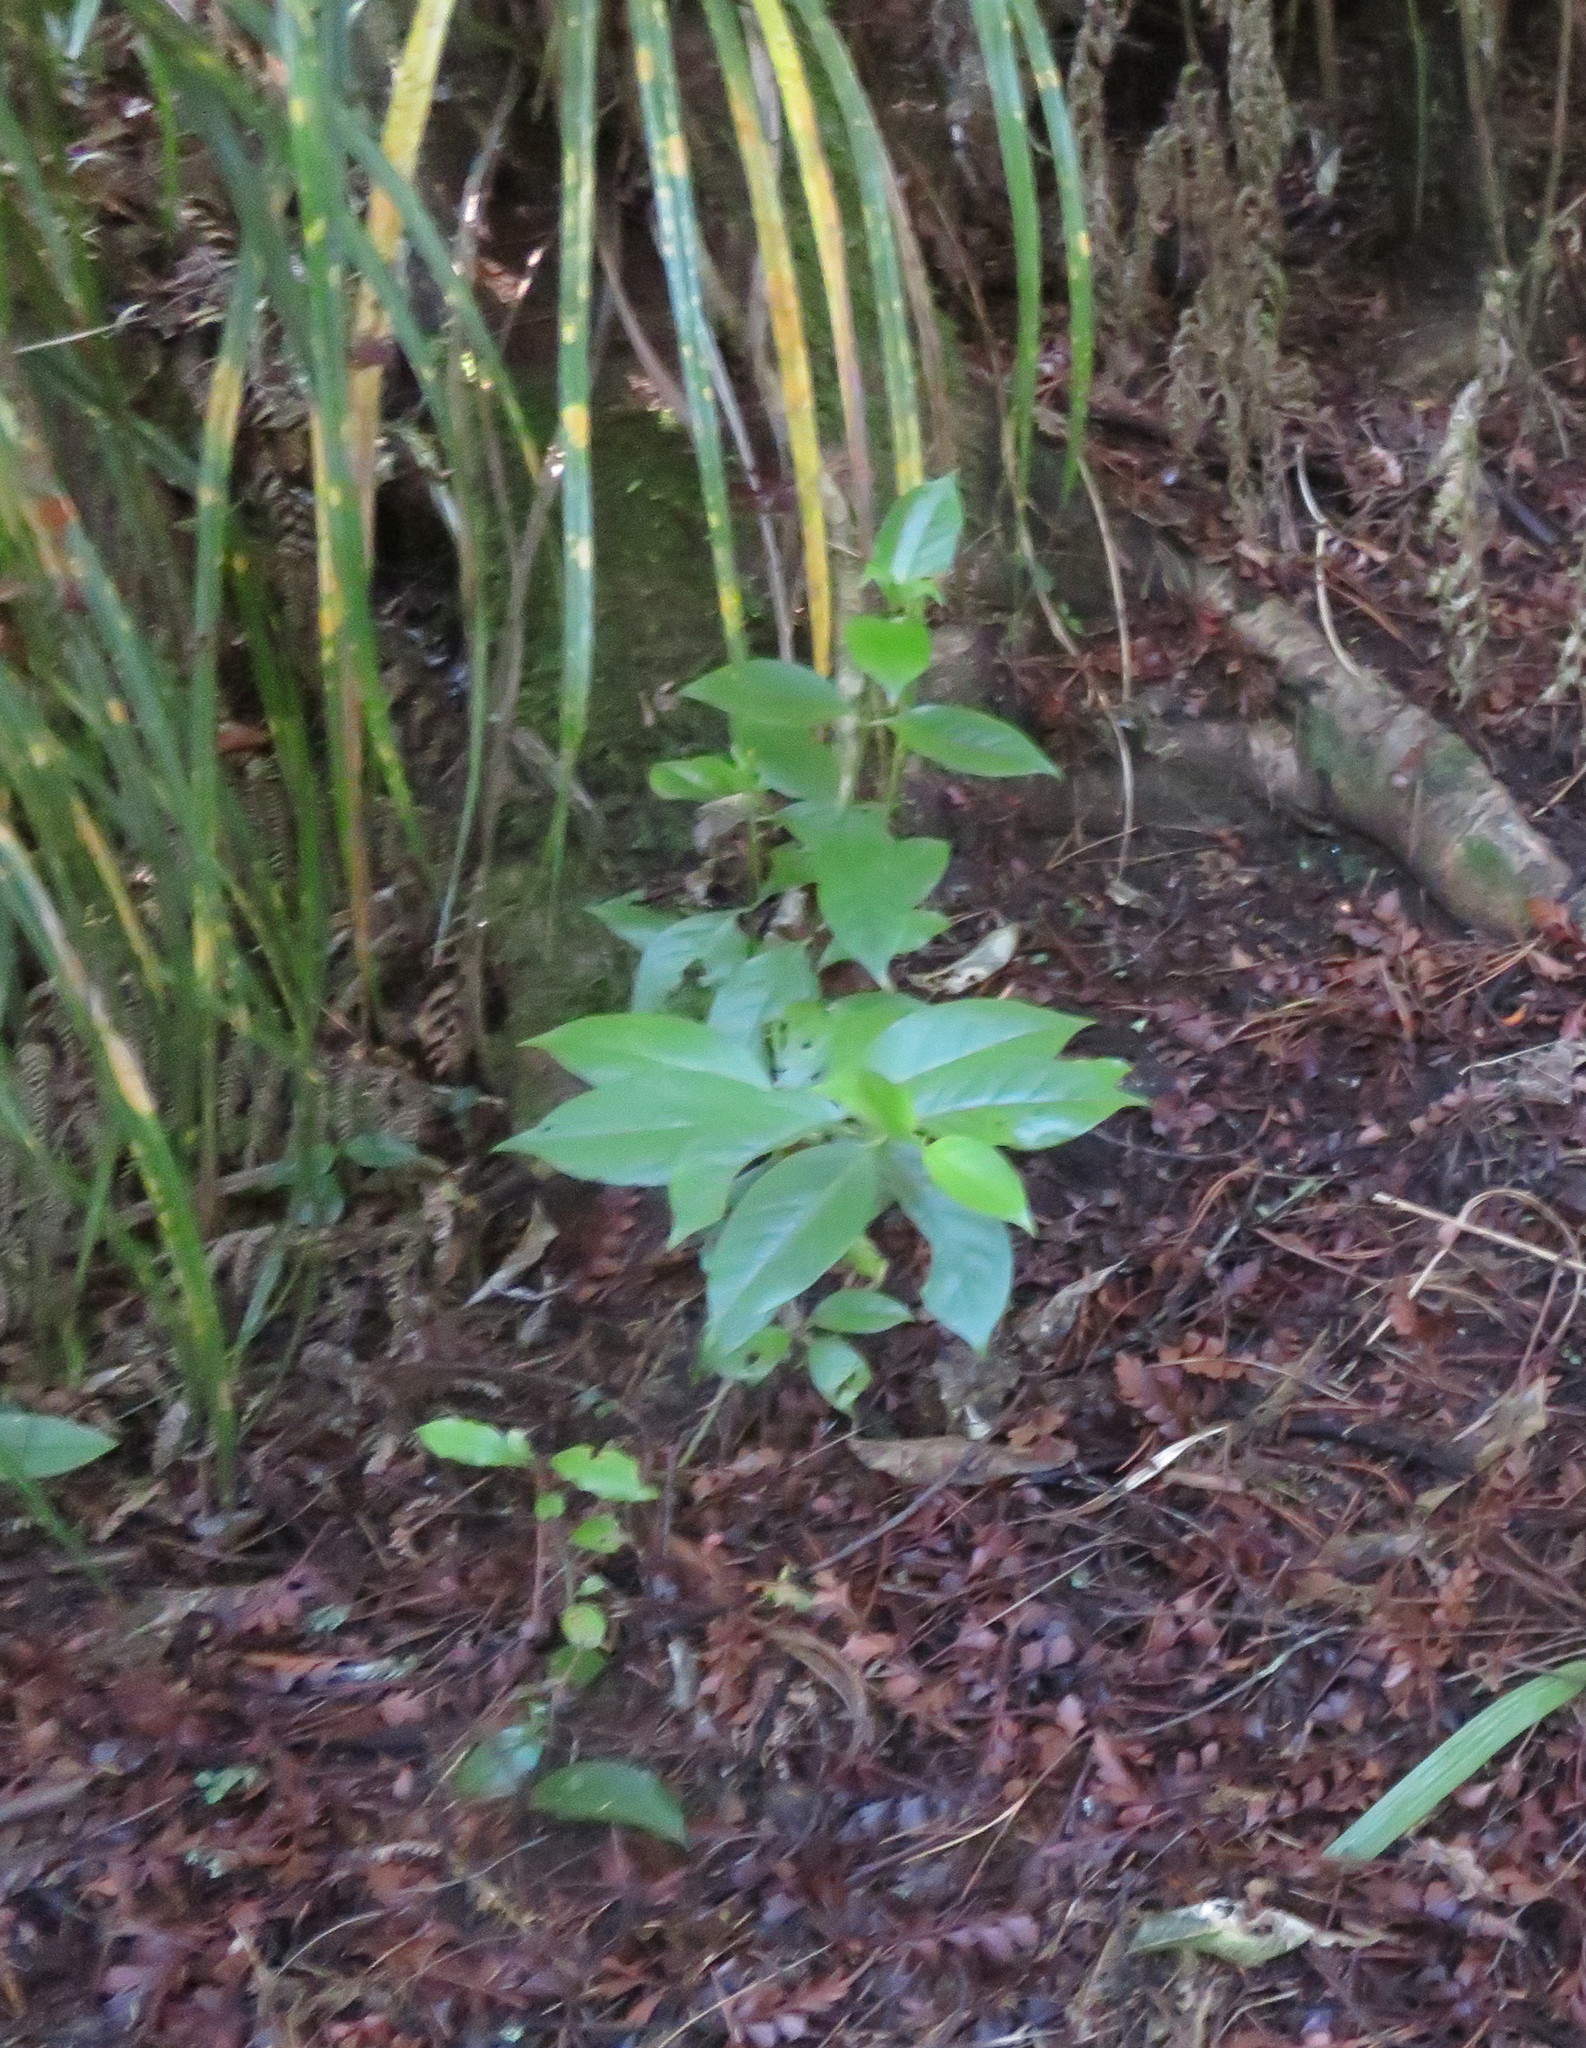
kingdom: Plantae
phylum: Tracheophyta
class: Magnoliopsida
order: Gentianales
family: Loganiaceae
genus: Geniostoma
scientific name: Geniostoma ligustrifolium
